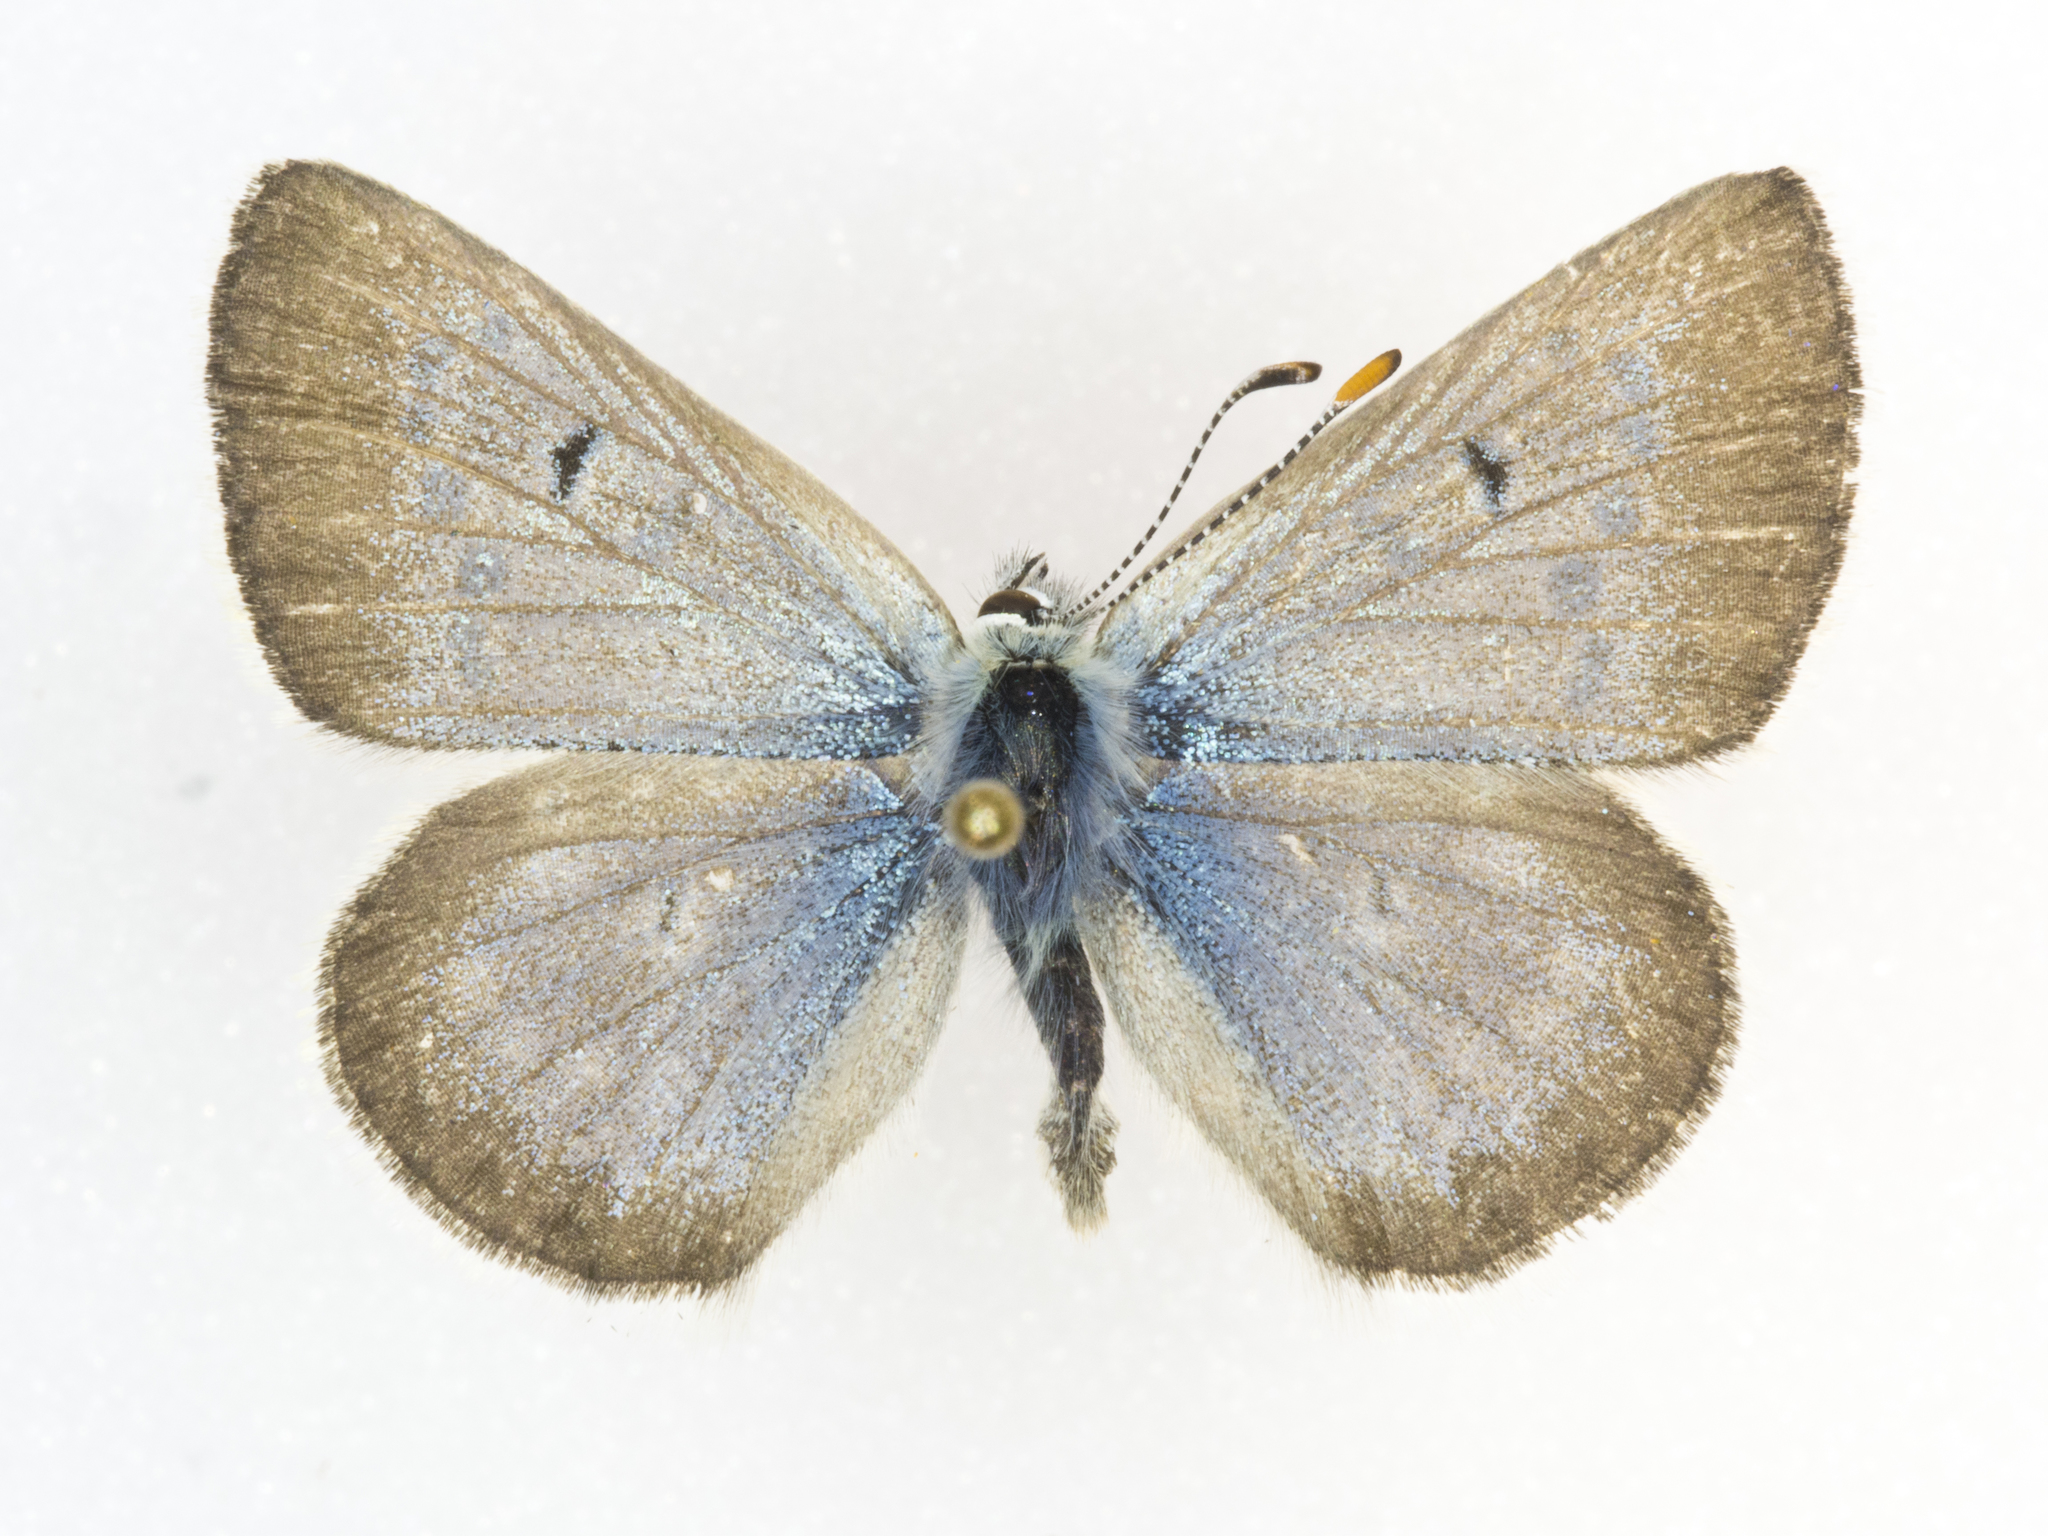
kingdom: Animalia
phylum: Arthropoda
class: Insecta
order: Lepidoptera
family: Lycaenidae
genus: Agriades
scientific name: Agriades glandon
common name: Glandon blue
